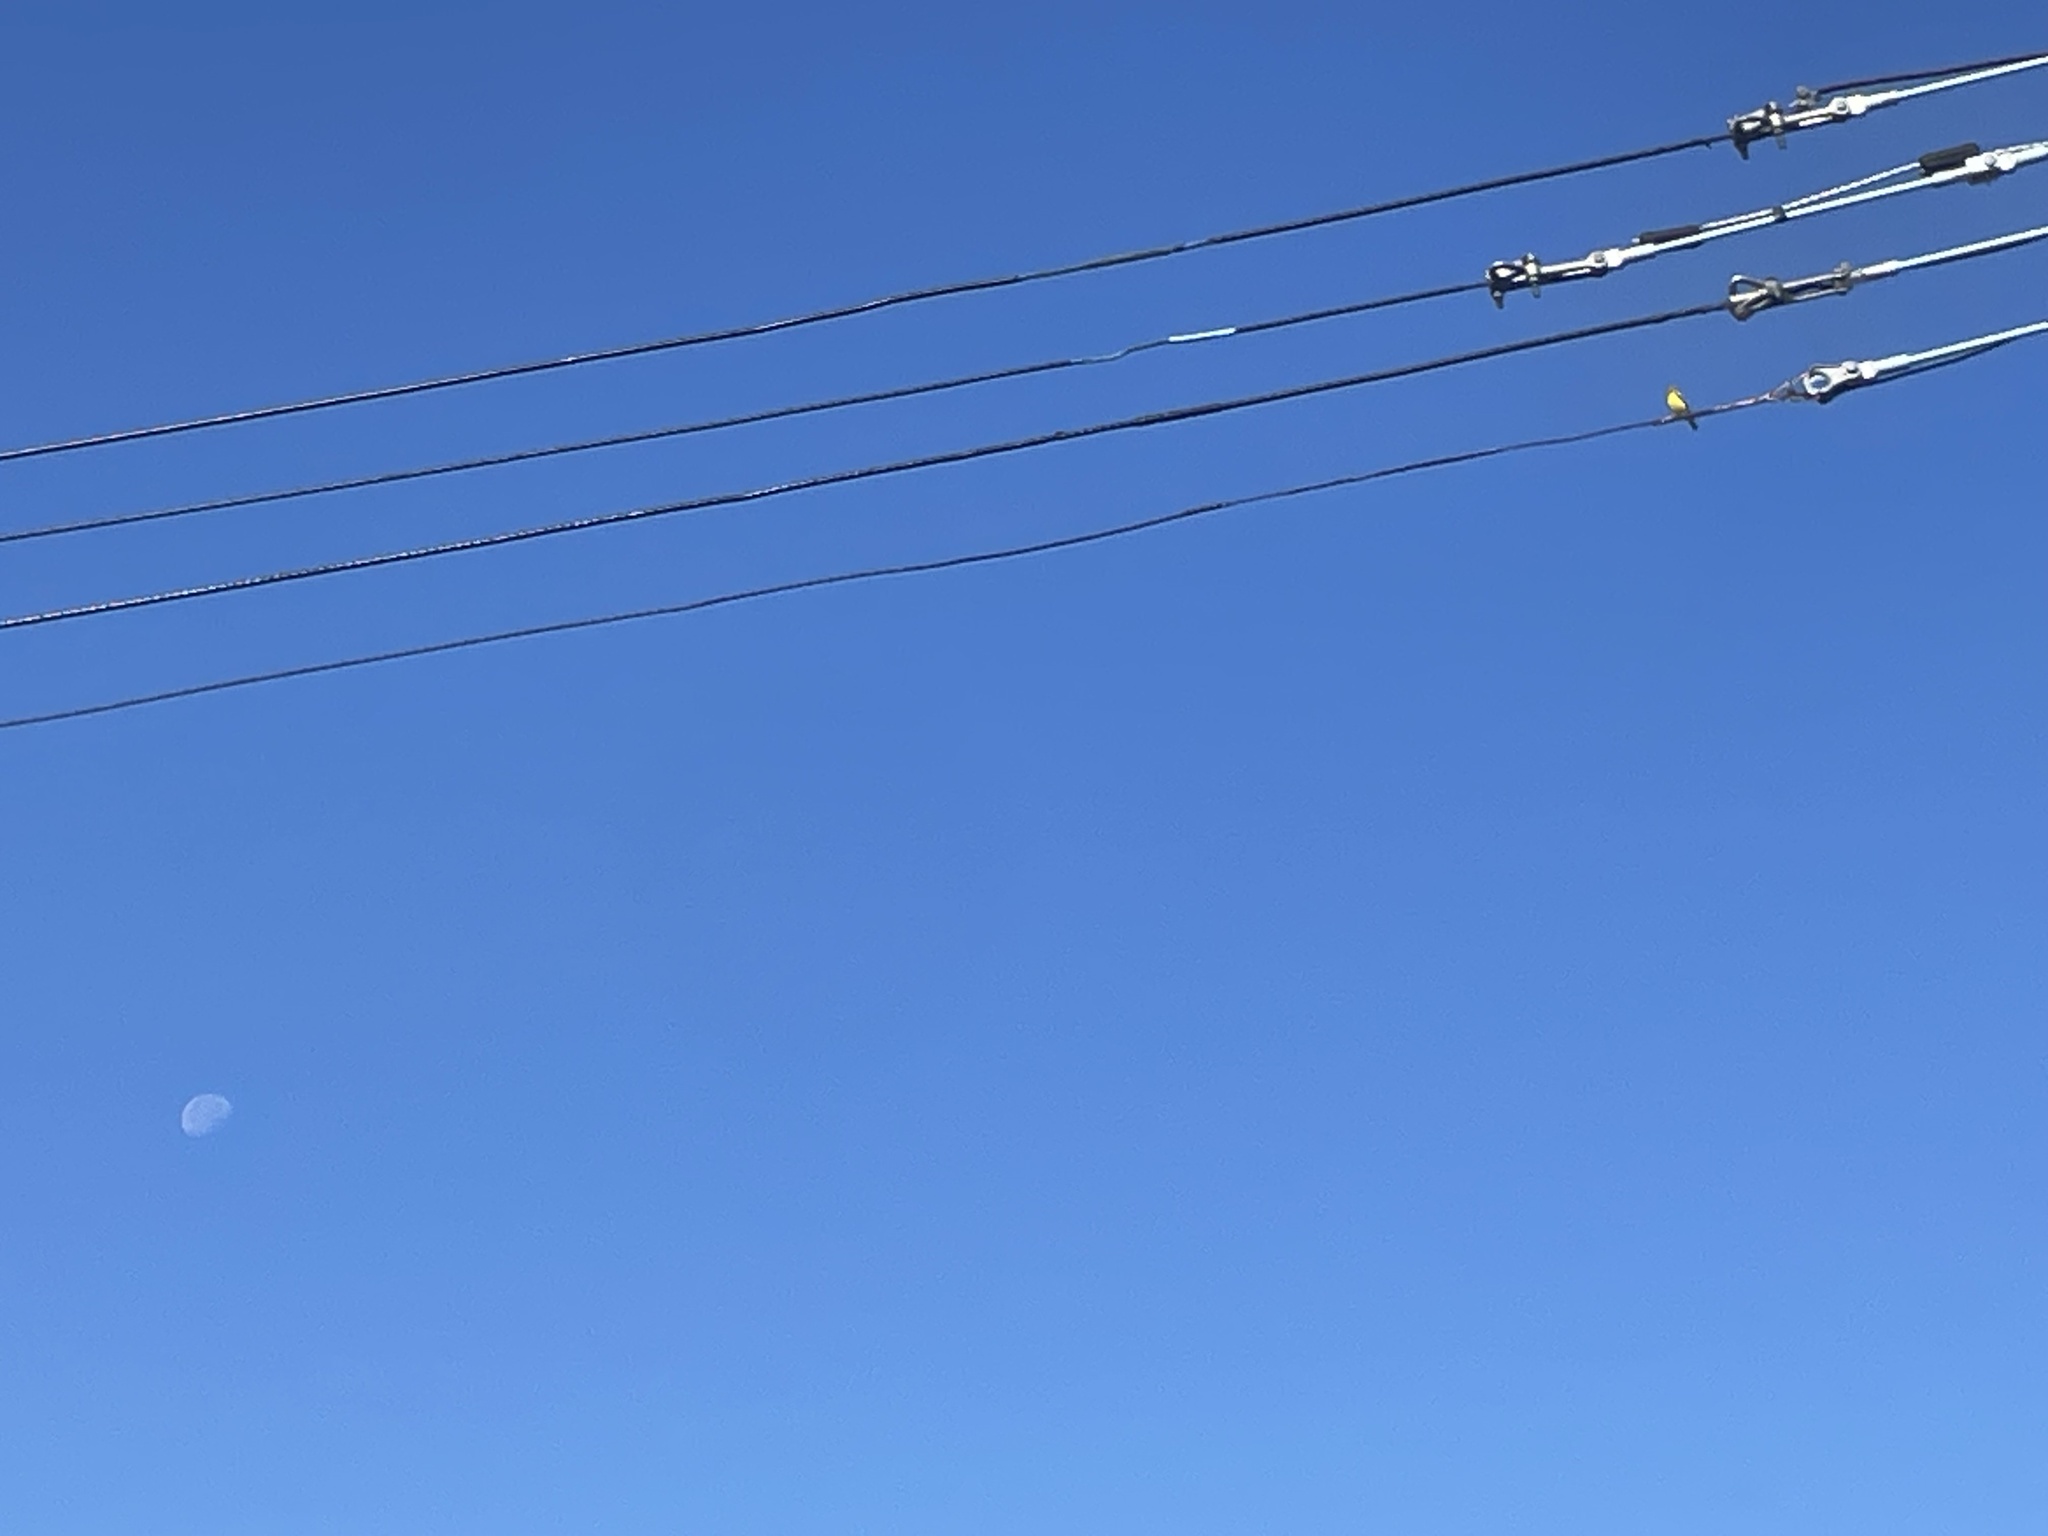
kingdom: Animalia
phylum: Chordata
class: Aves
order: Passeriformes
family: Fringillidae
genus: Spinus
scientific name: Spinus tristis
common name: American goldfinch
